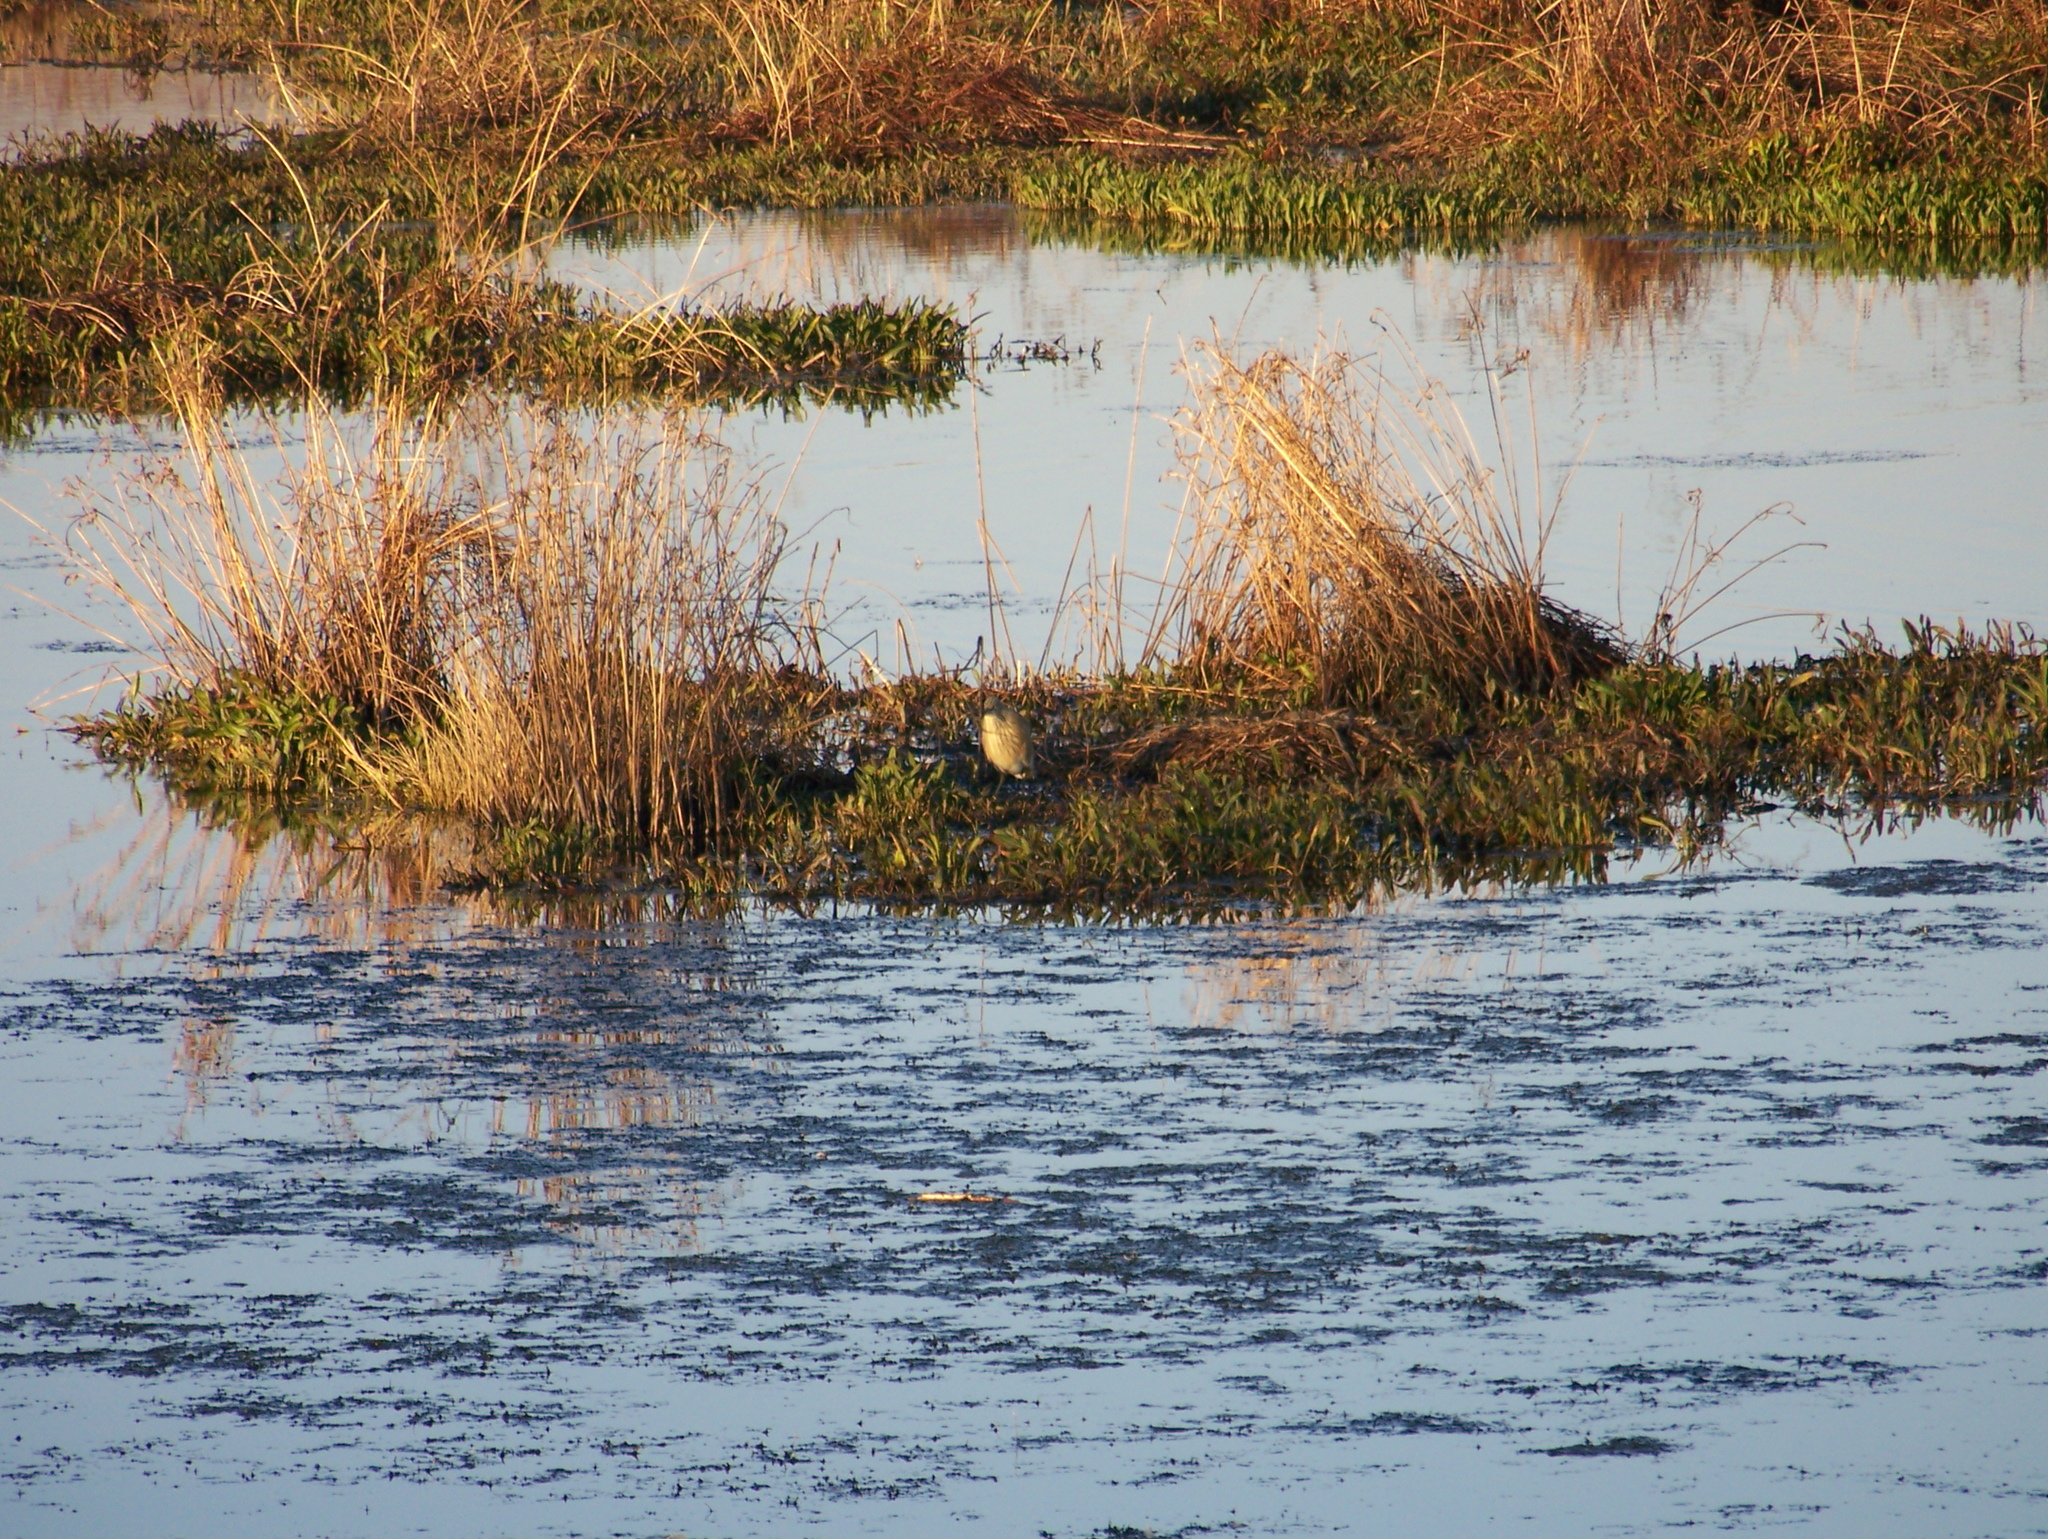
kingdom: Animalia
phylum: Chordata
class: Aves
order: Pelecaniformes
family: Ardeidae
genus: Ardeola
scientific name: Ardeola ralloides
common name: Squacco heron
